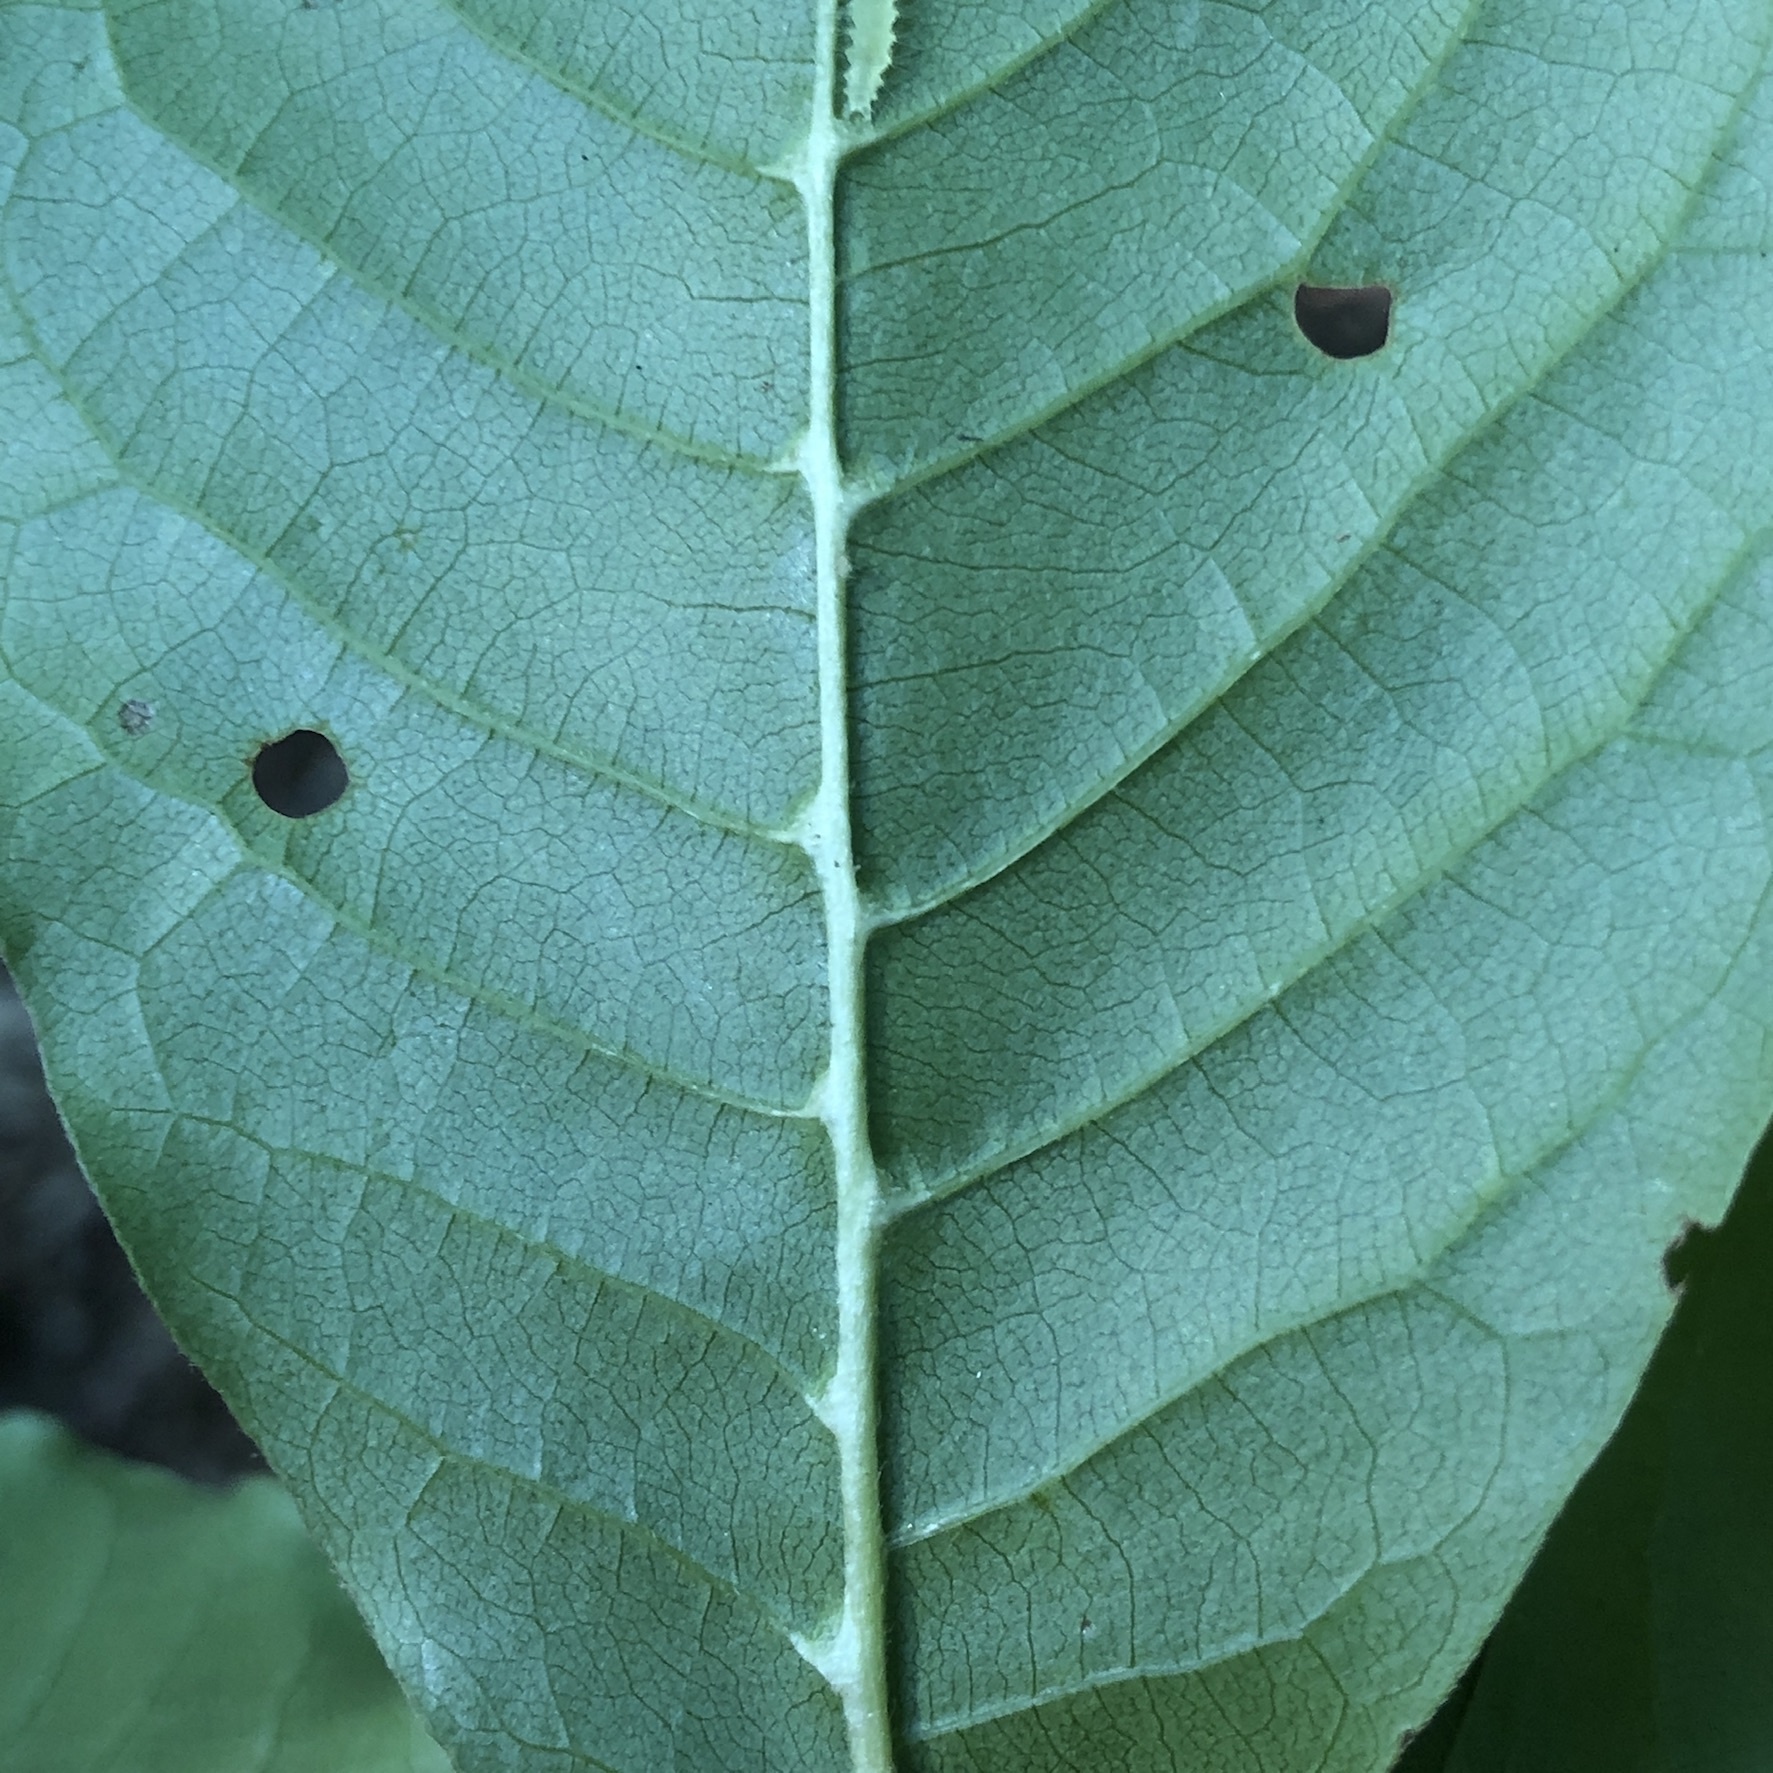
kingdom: Animalia
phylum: Arthropoda
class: Arachnida
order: Trombidiformes
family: Eriophyidae
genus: Cenalox
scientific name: Cenalox
